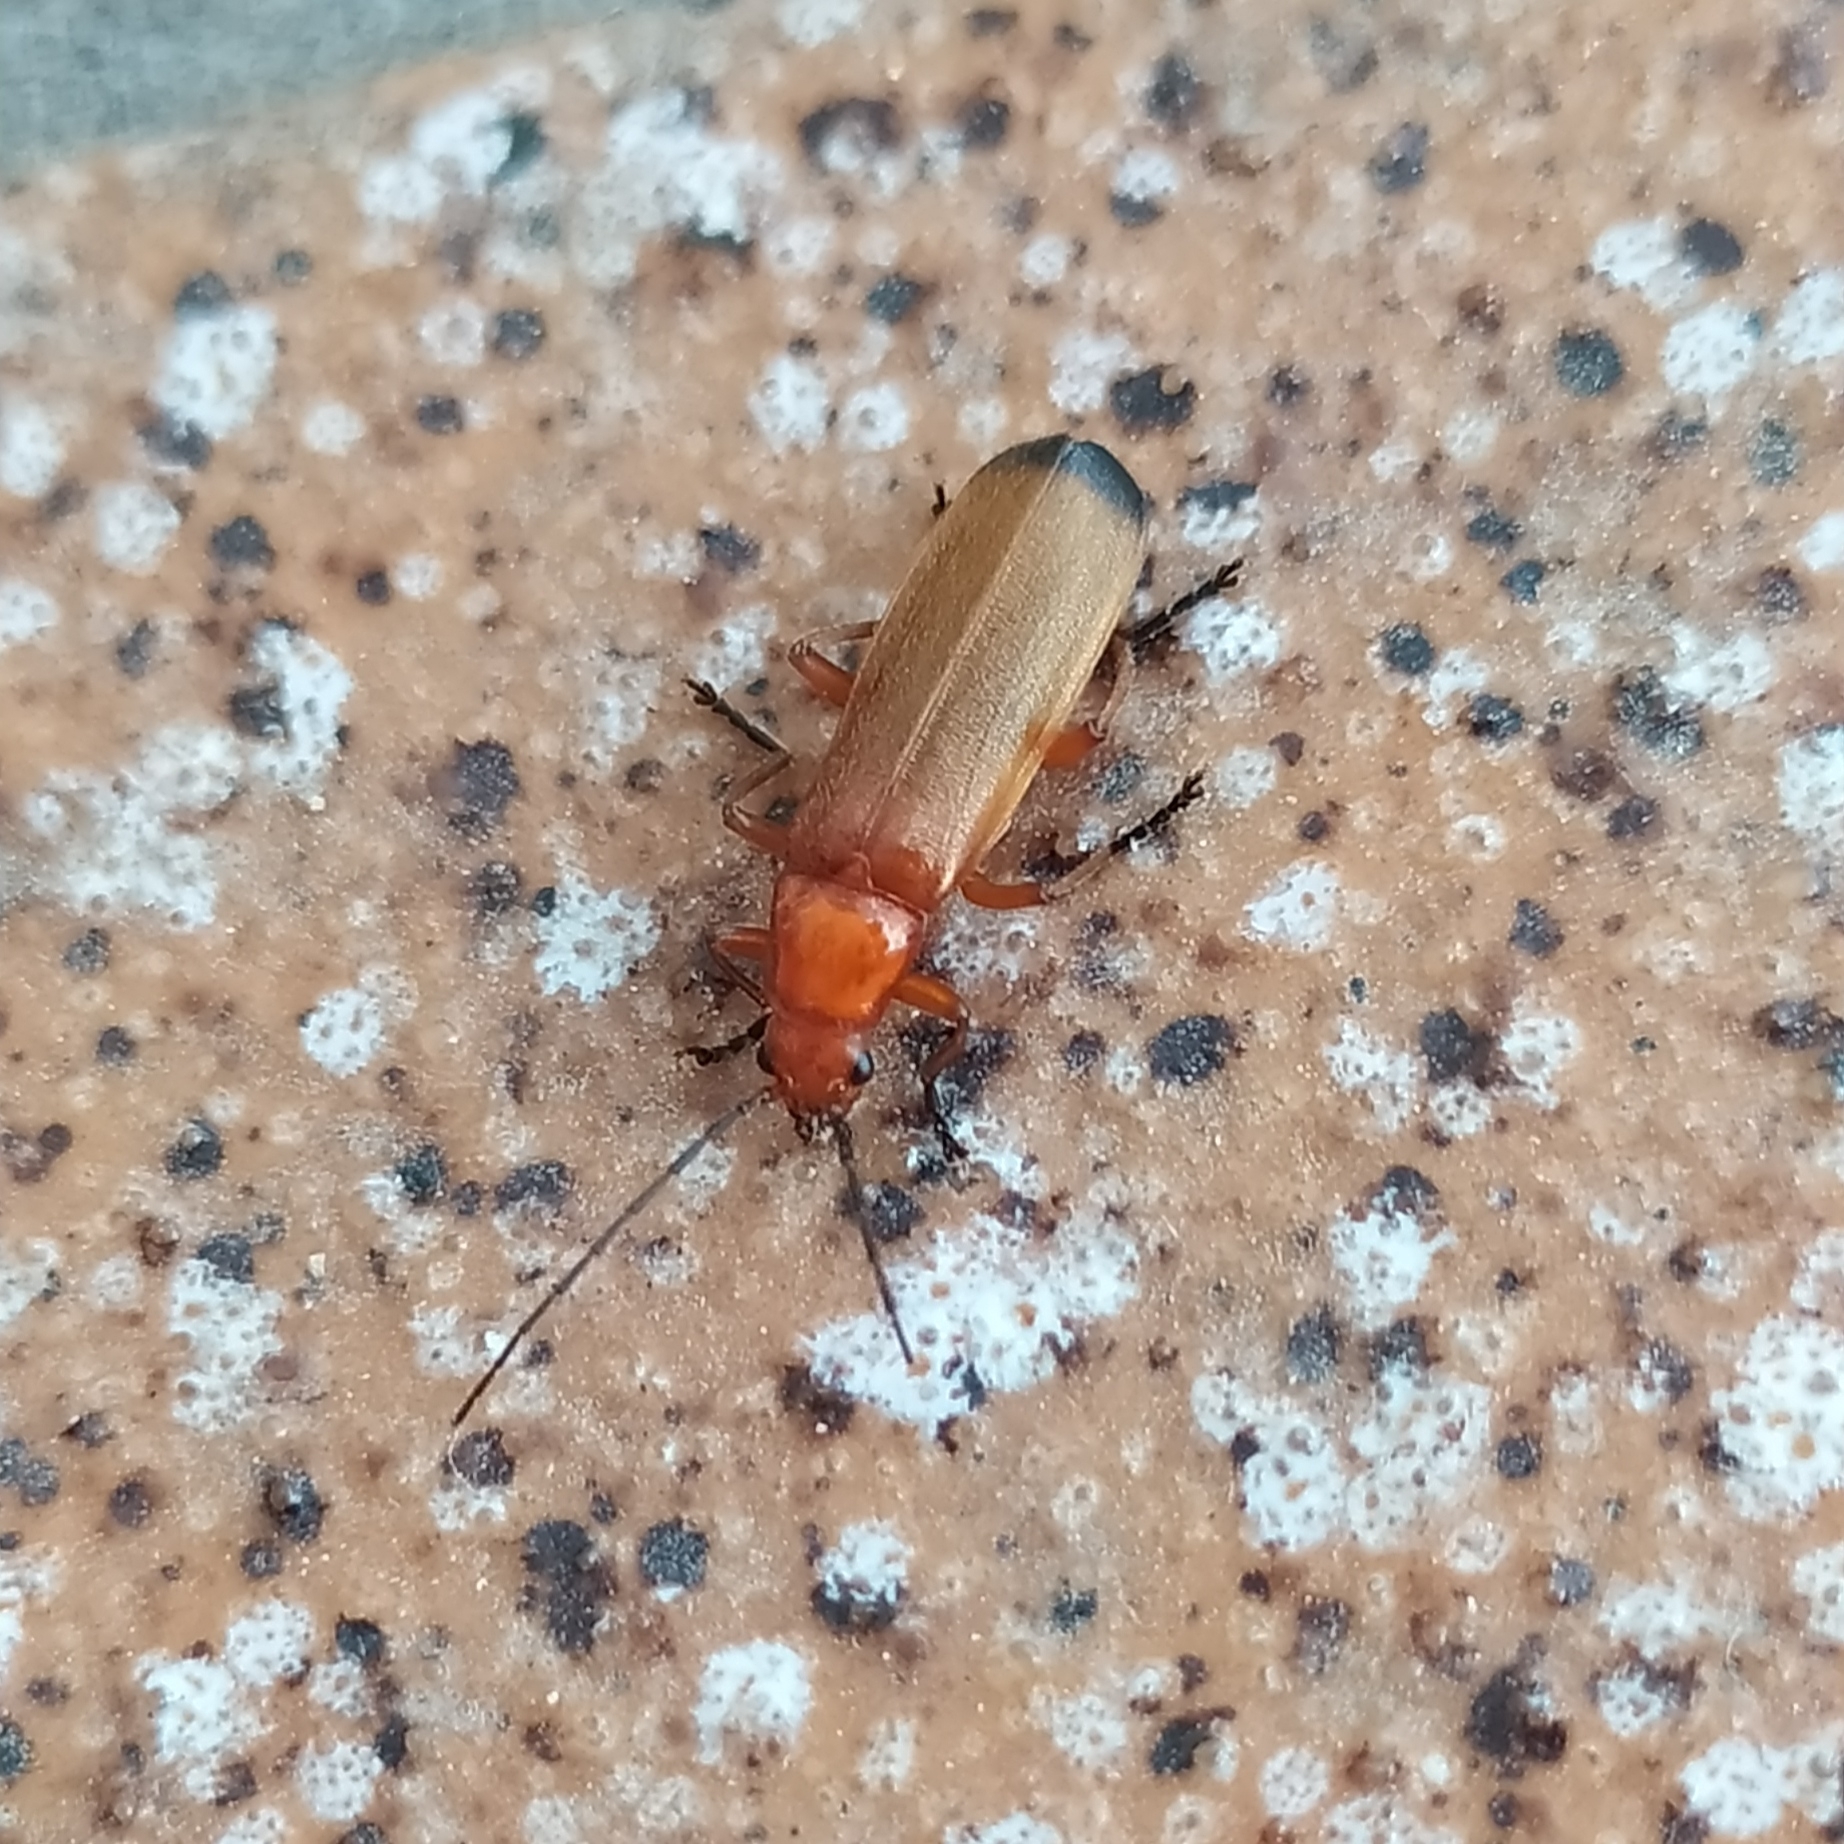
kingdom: Animalia
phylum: Arthropoda
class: Insecta
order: Coleoptera
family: Cantharidae
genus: Rhagonycha
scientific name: Rhagonycha fulva
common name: Common red soldier beetle
